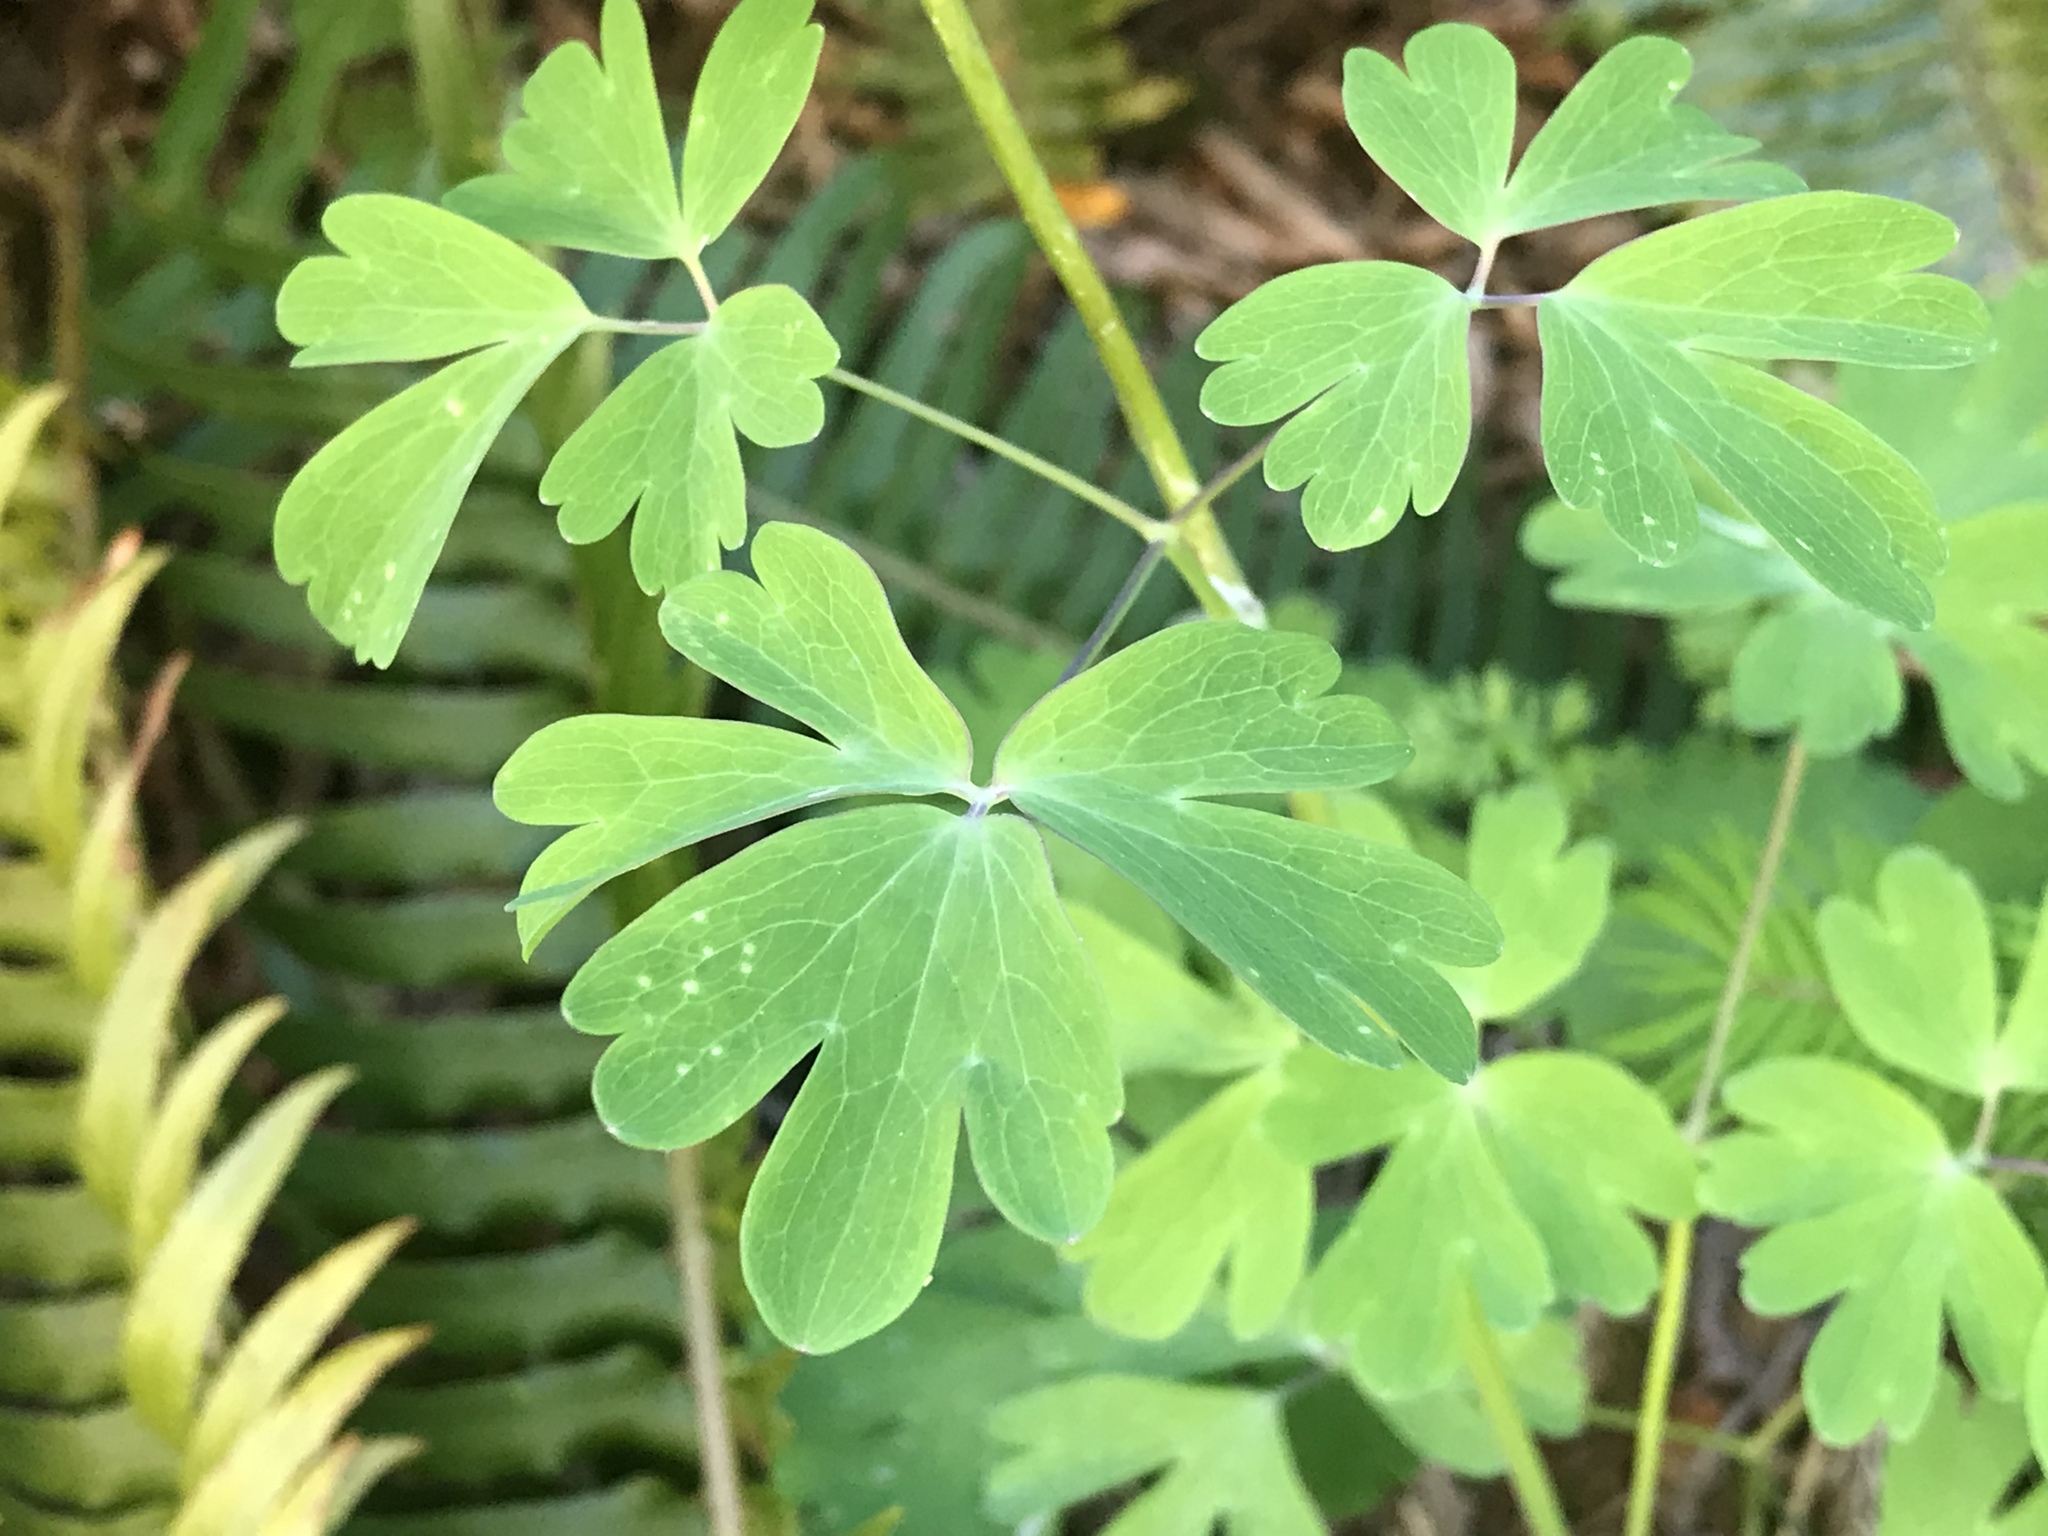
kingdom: Plantae
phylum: Tracheophyta
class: Magnoliopsida
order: Ranunculales
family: Ranunculaceae
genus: Aquilegia
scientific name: Aquilegia formosa
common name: Sitka columbine
